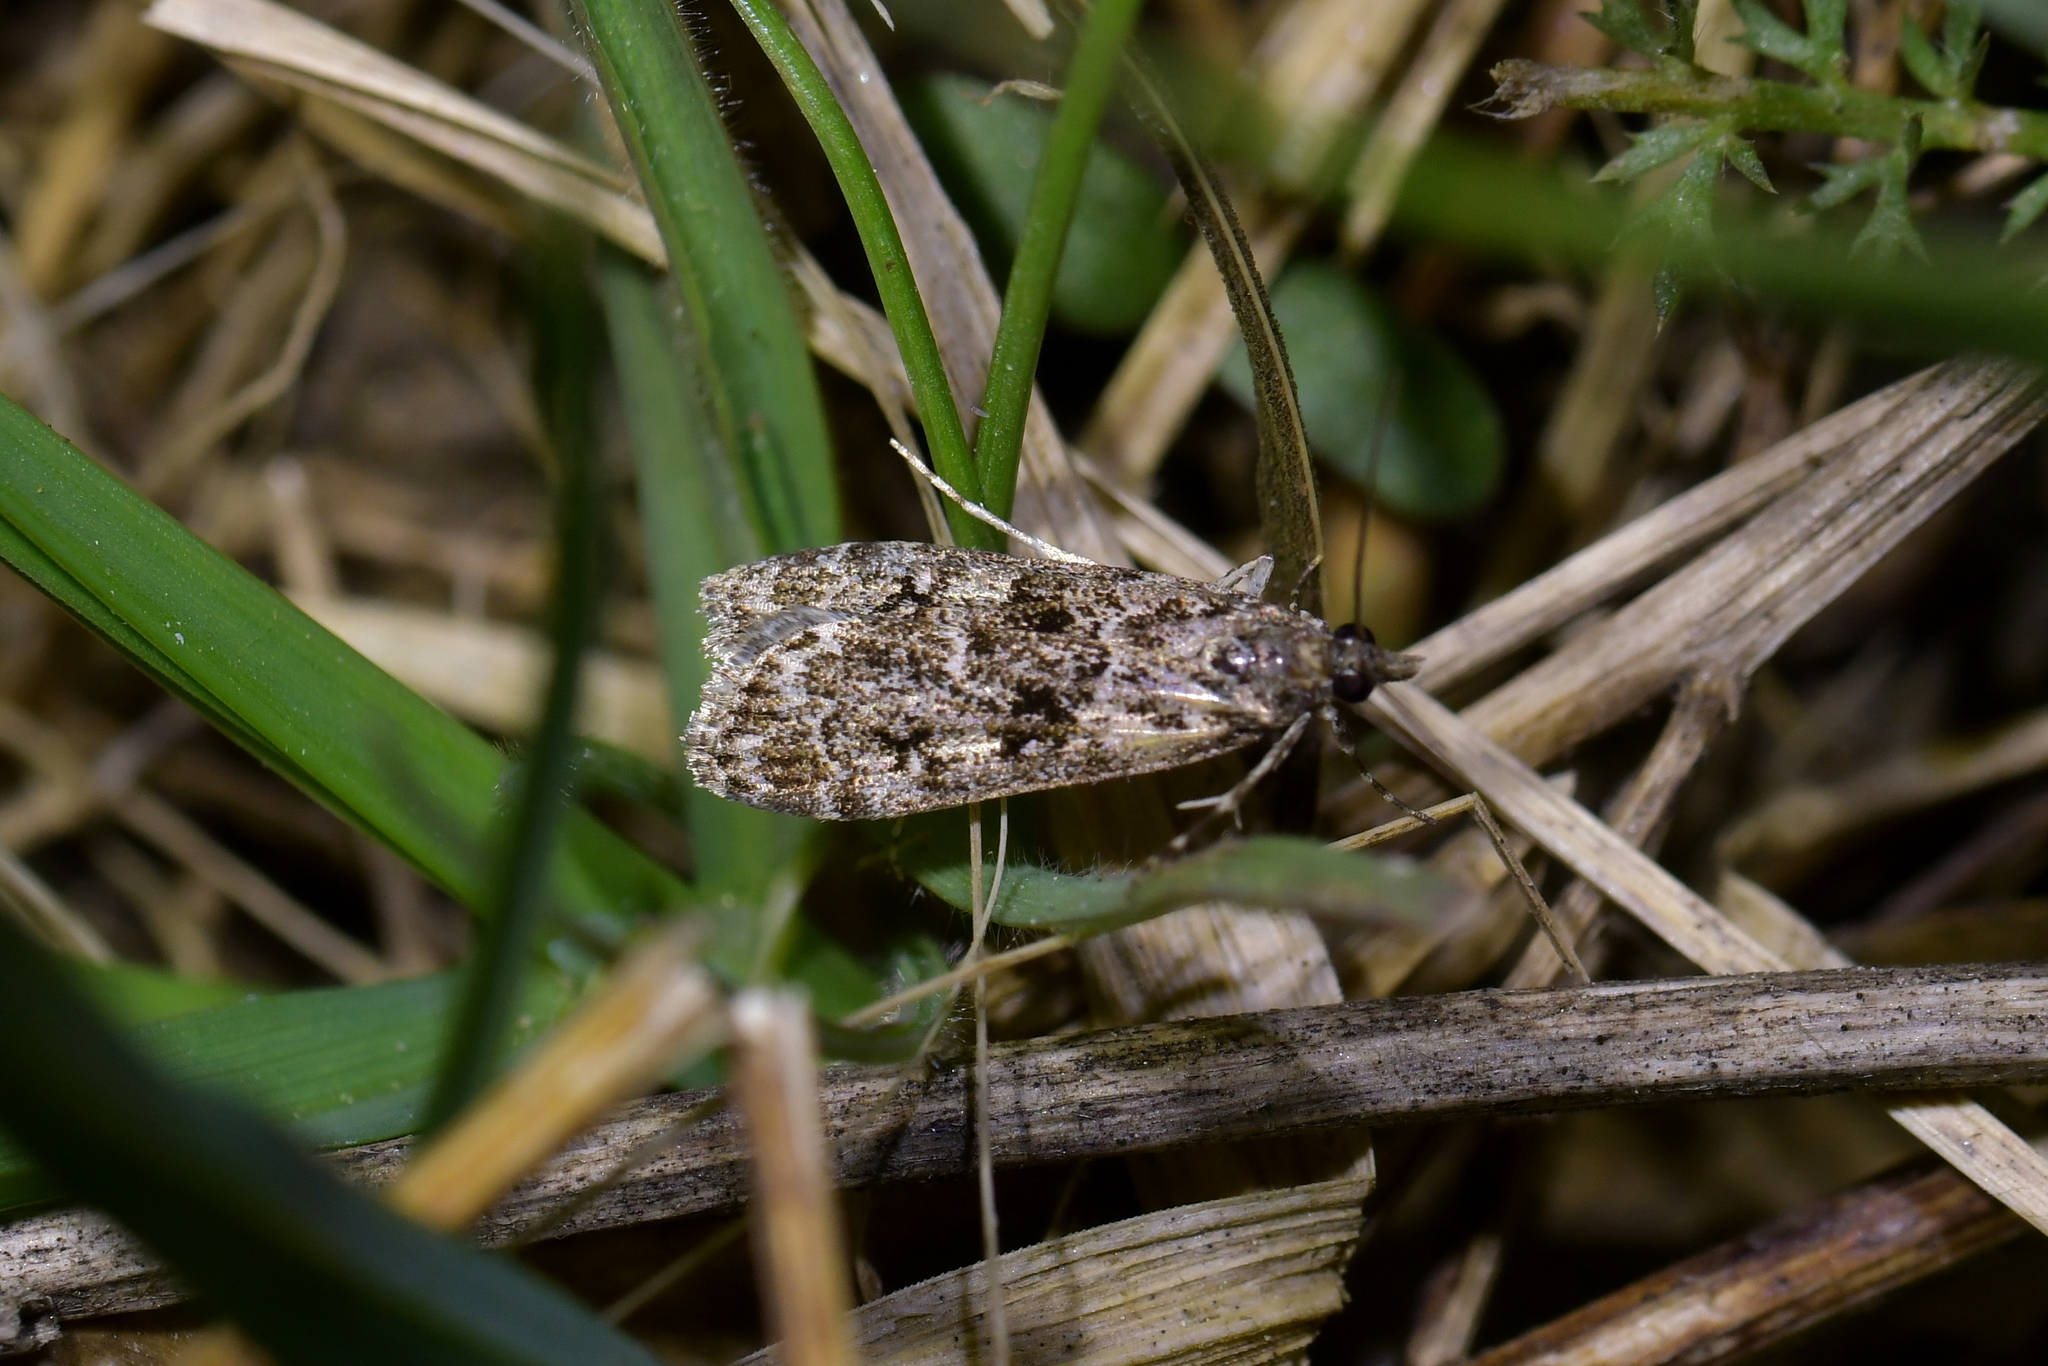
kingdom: Animalia
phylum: Arthropoda
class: Insecta
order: Lepidoptera
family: Crambidae
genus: Eudonia
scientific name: Eudonia philerga
